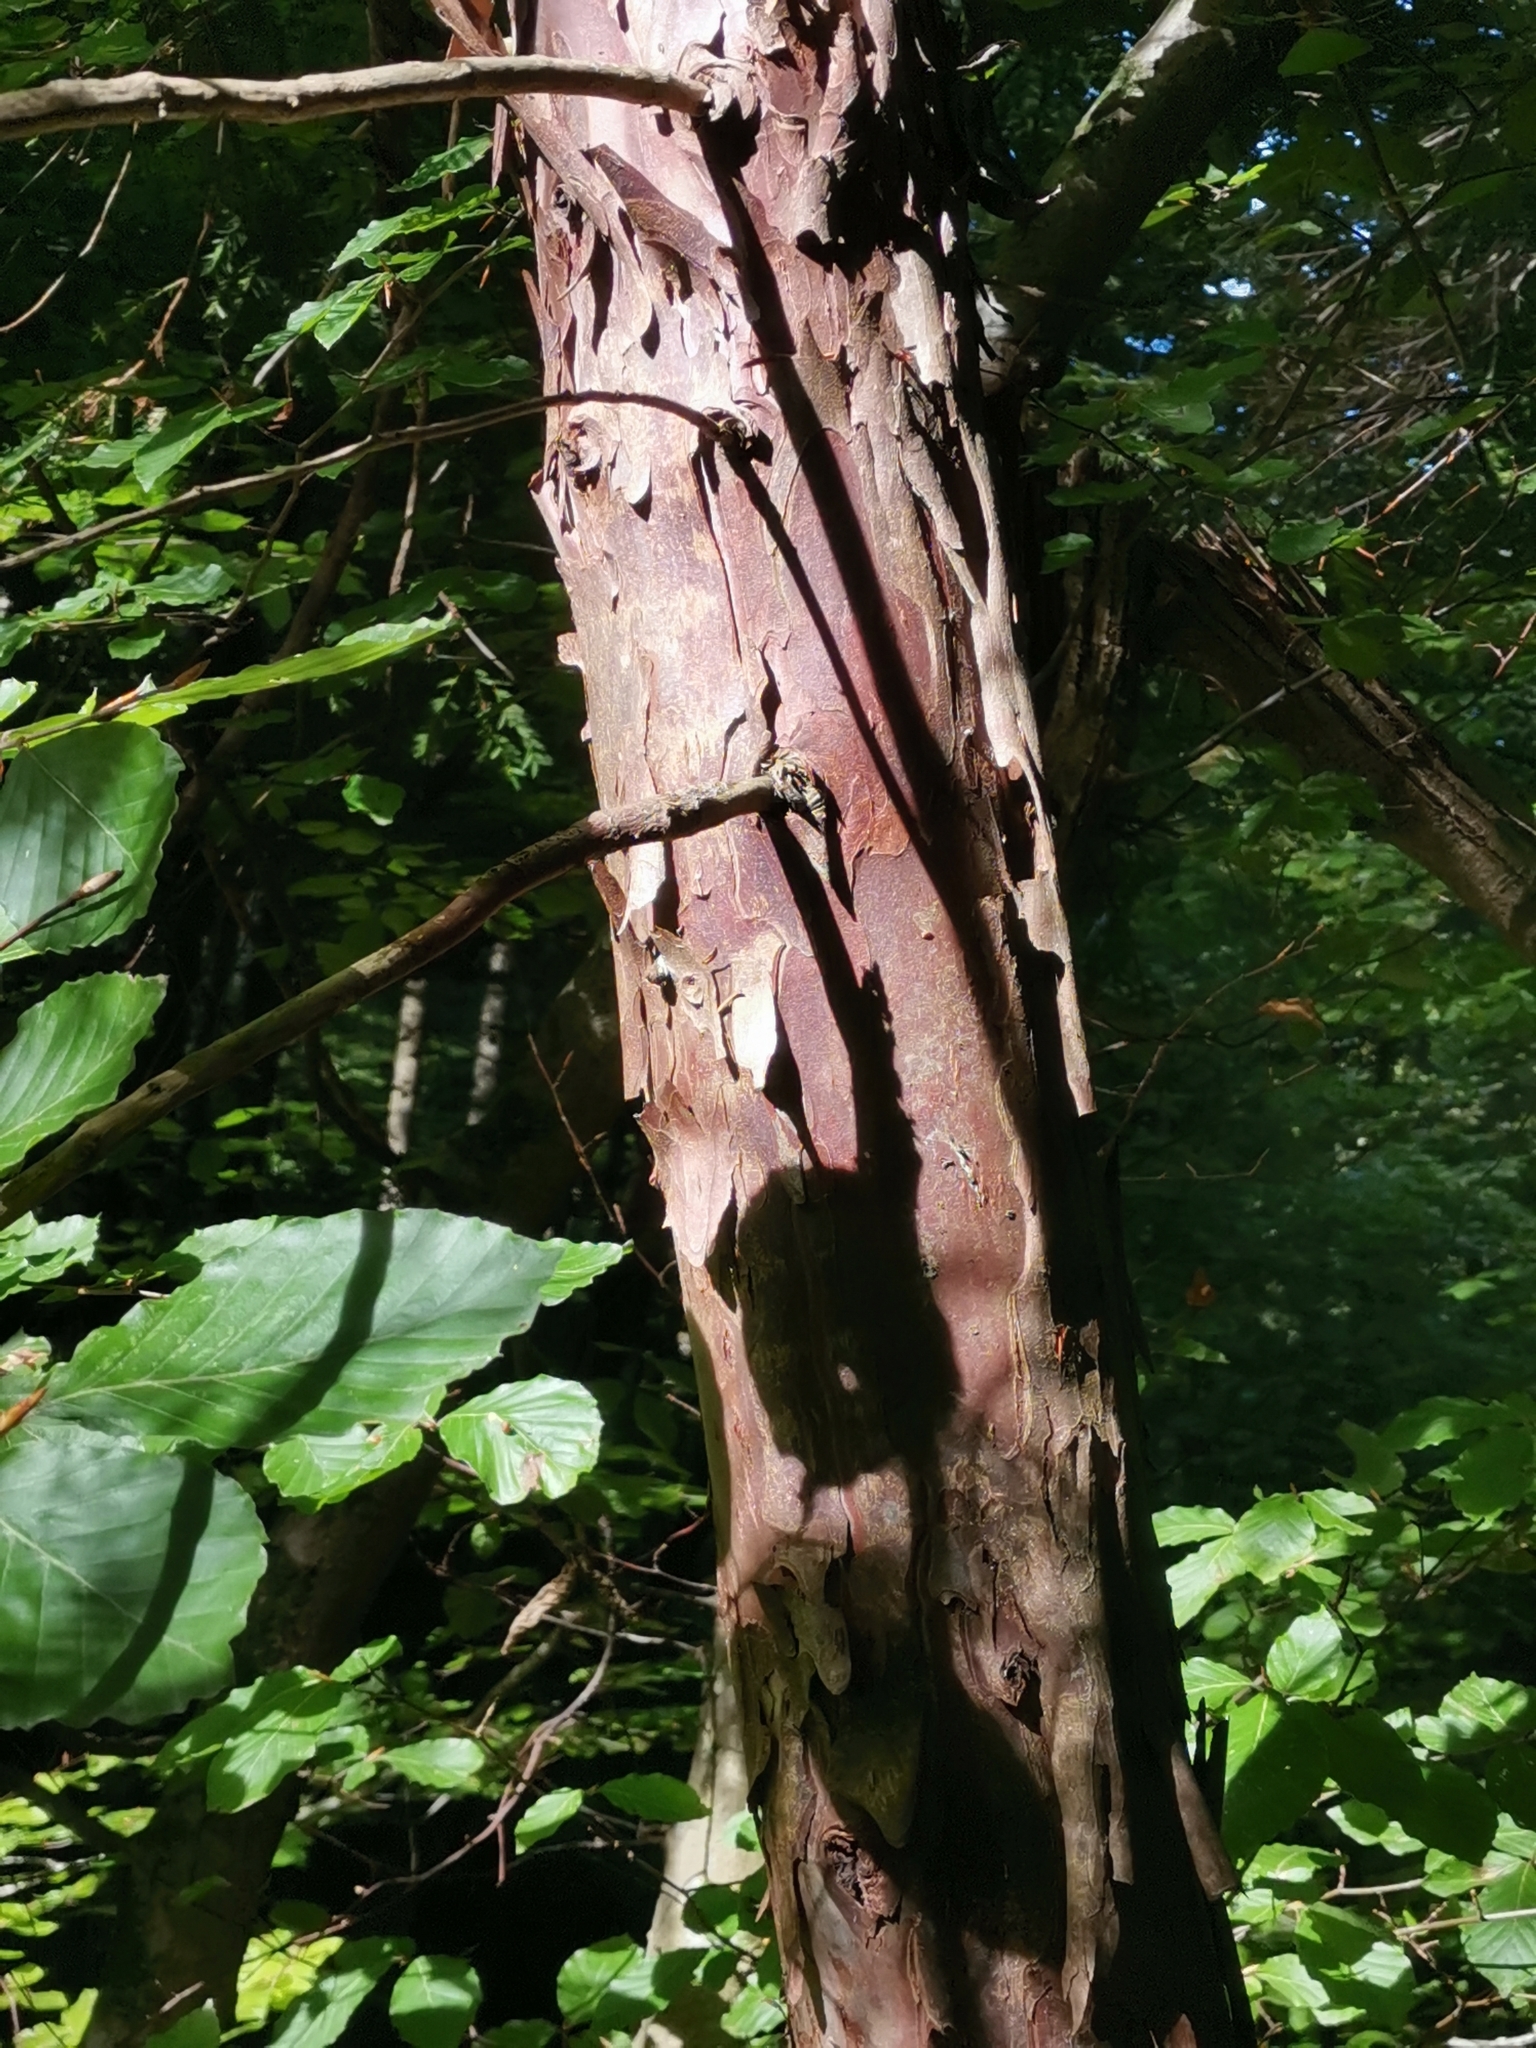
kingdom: Plantae
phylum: Tracheophyta
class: Pinopsida
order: Pinales
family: Taxaceae
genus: Taxus
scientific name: Taxus baccata
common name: Yew
